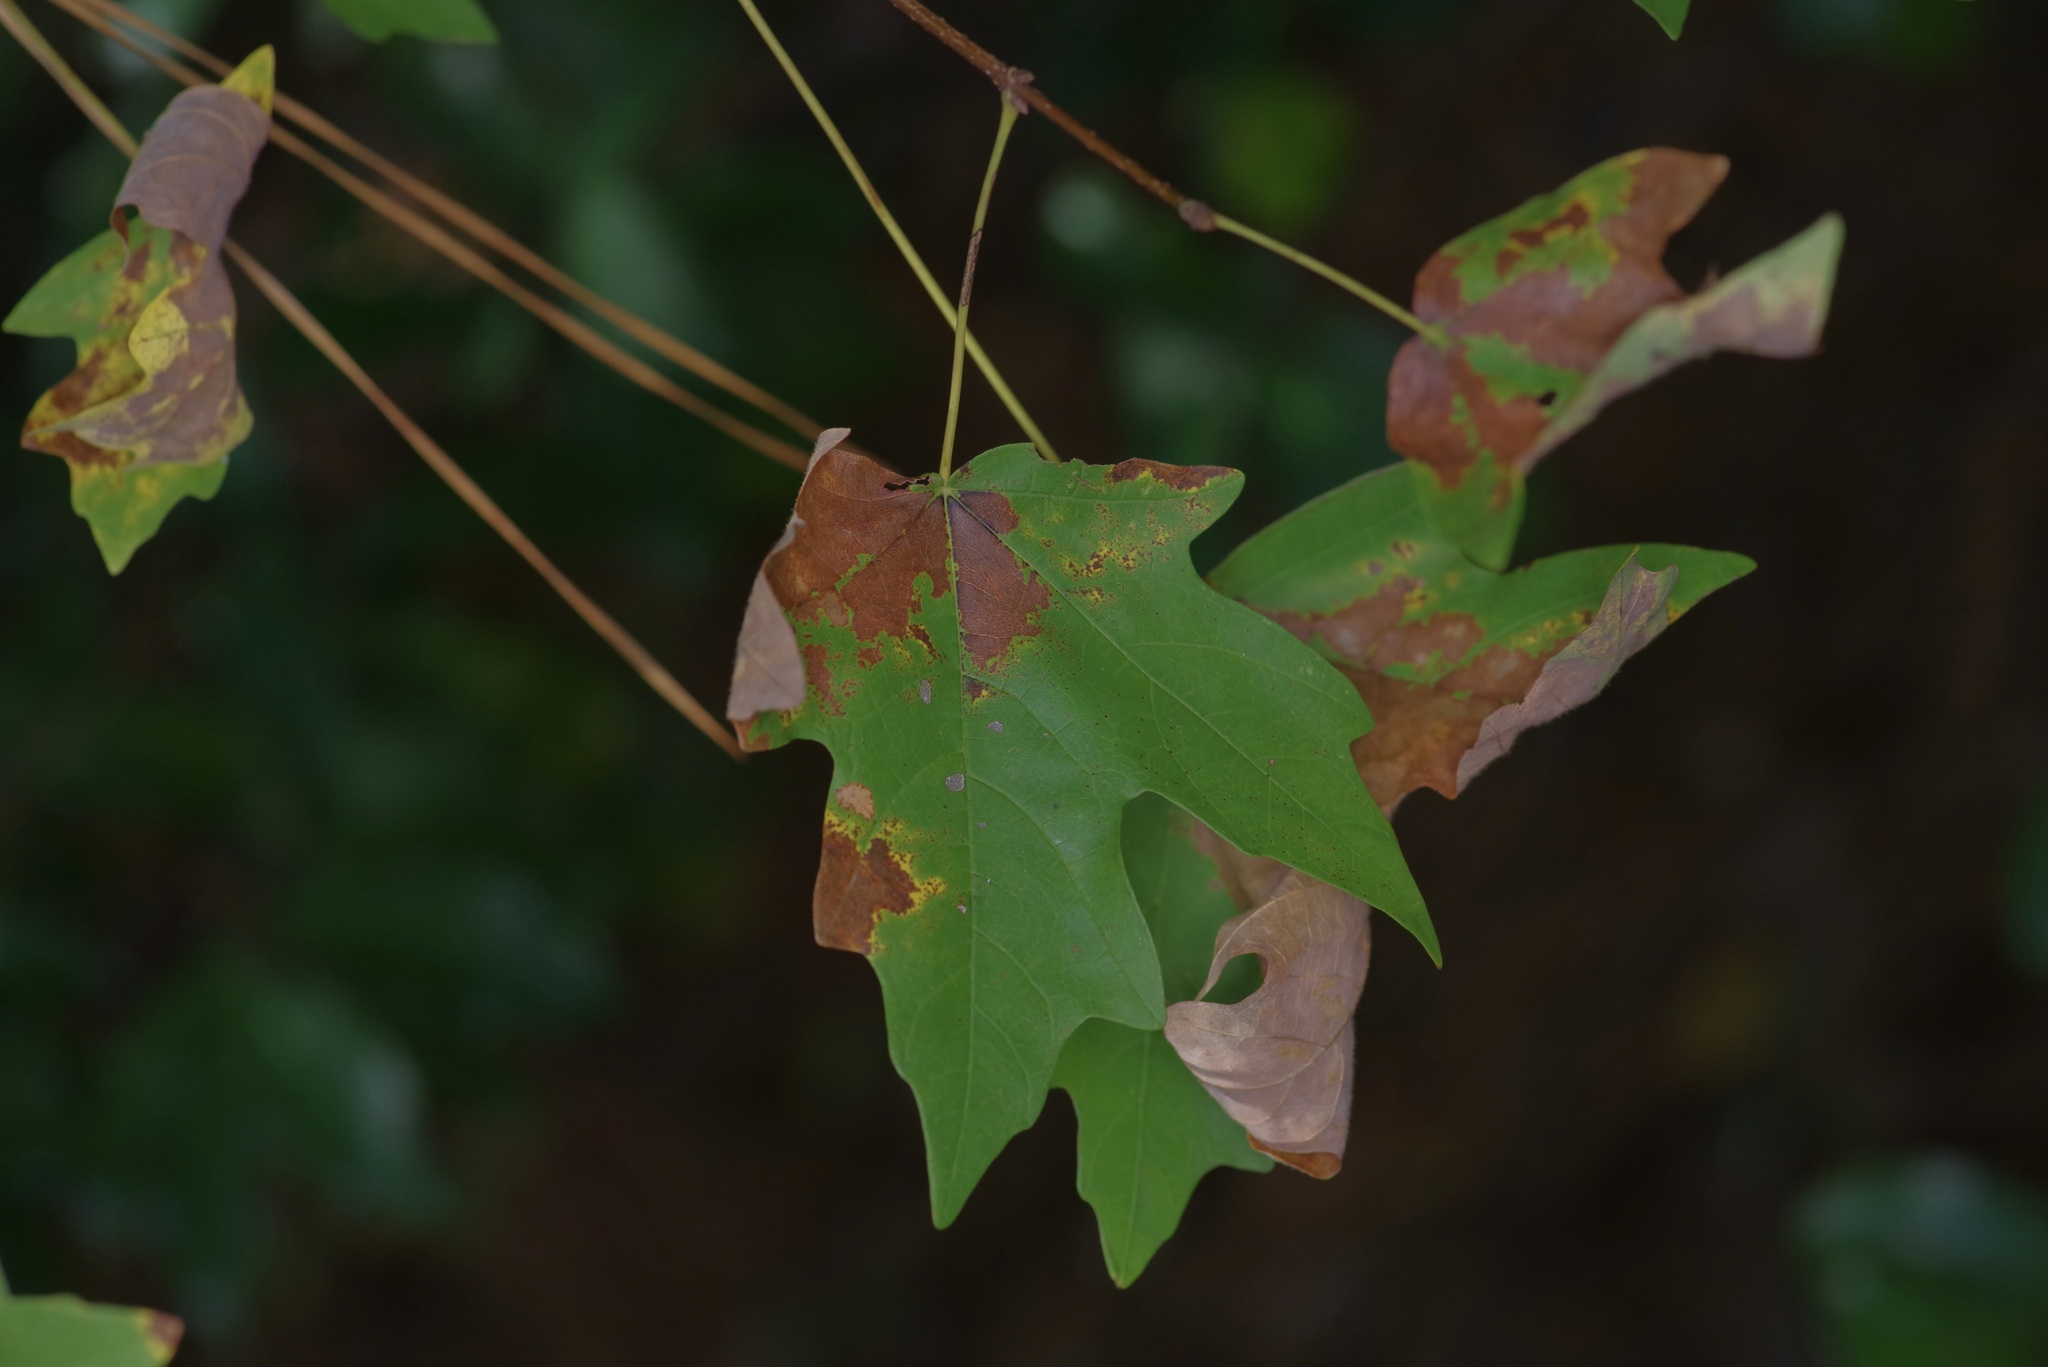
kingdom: Plantae
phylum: Tracheophyta
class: Magnoliopsida
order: Sapindales
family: Sapindaceae
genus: Acer
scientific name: Acer floridanum
